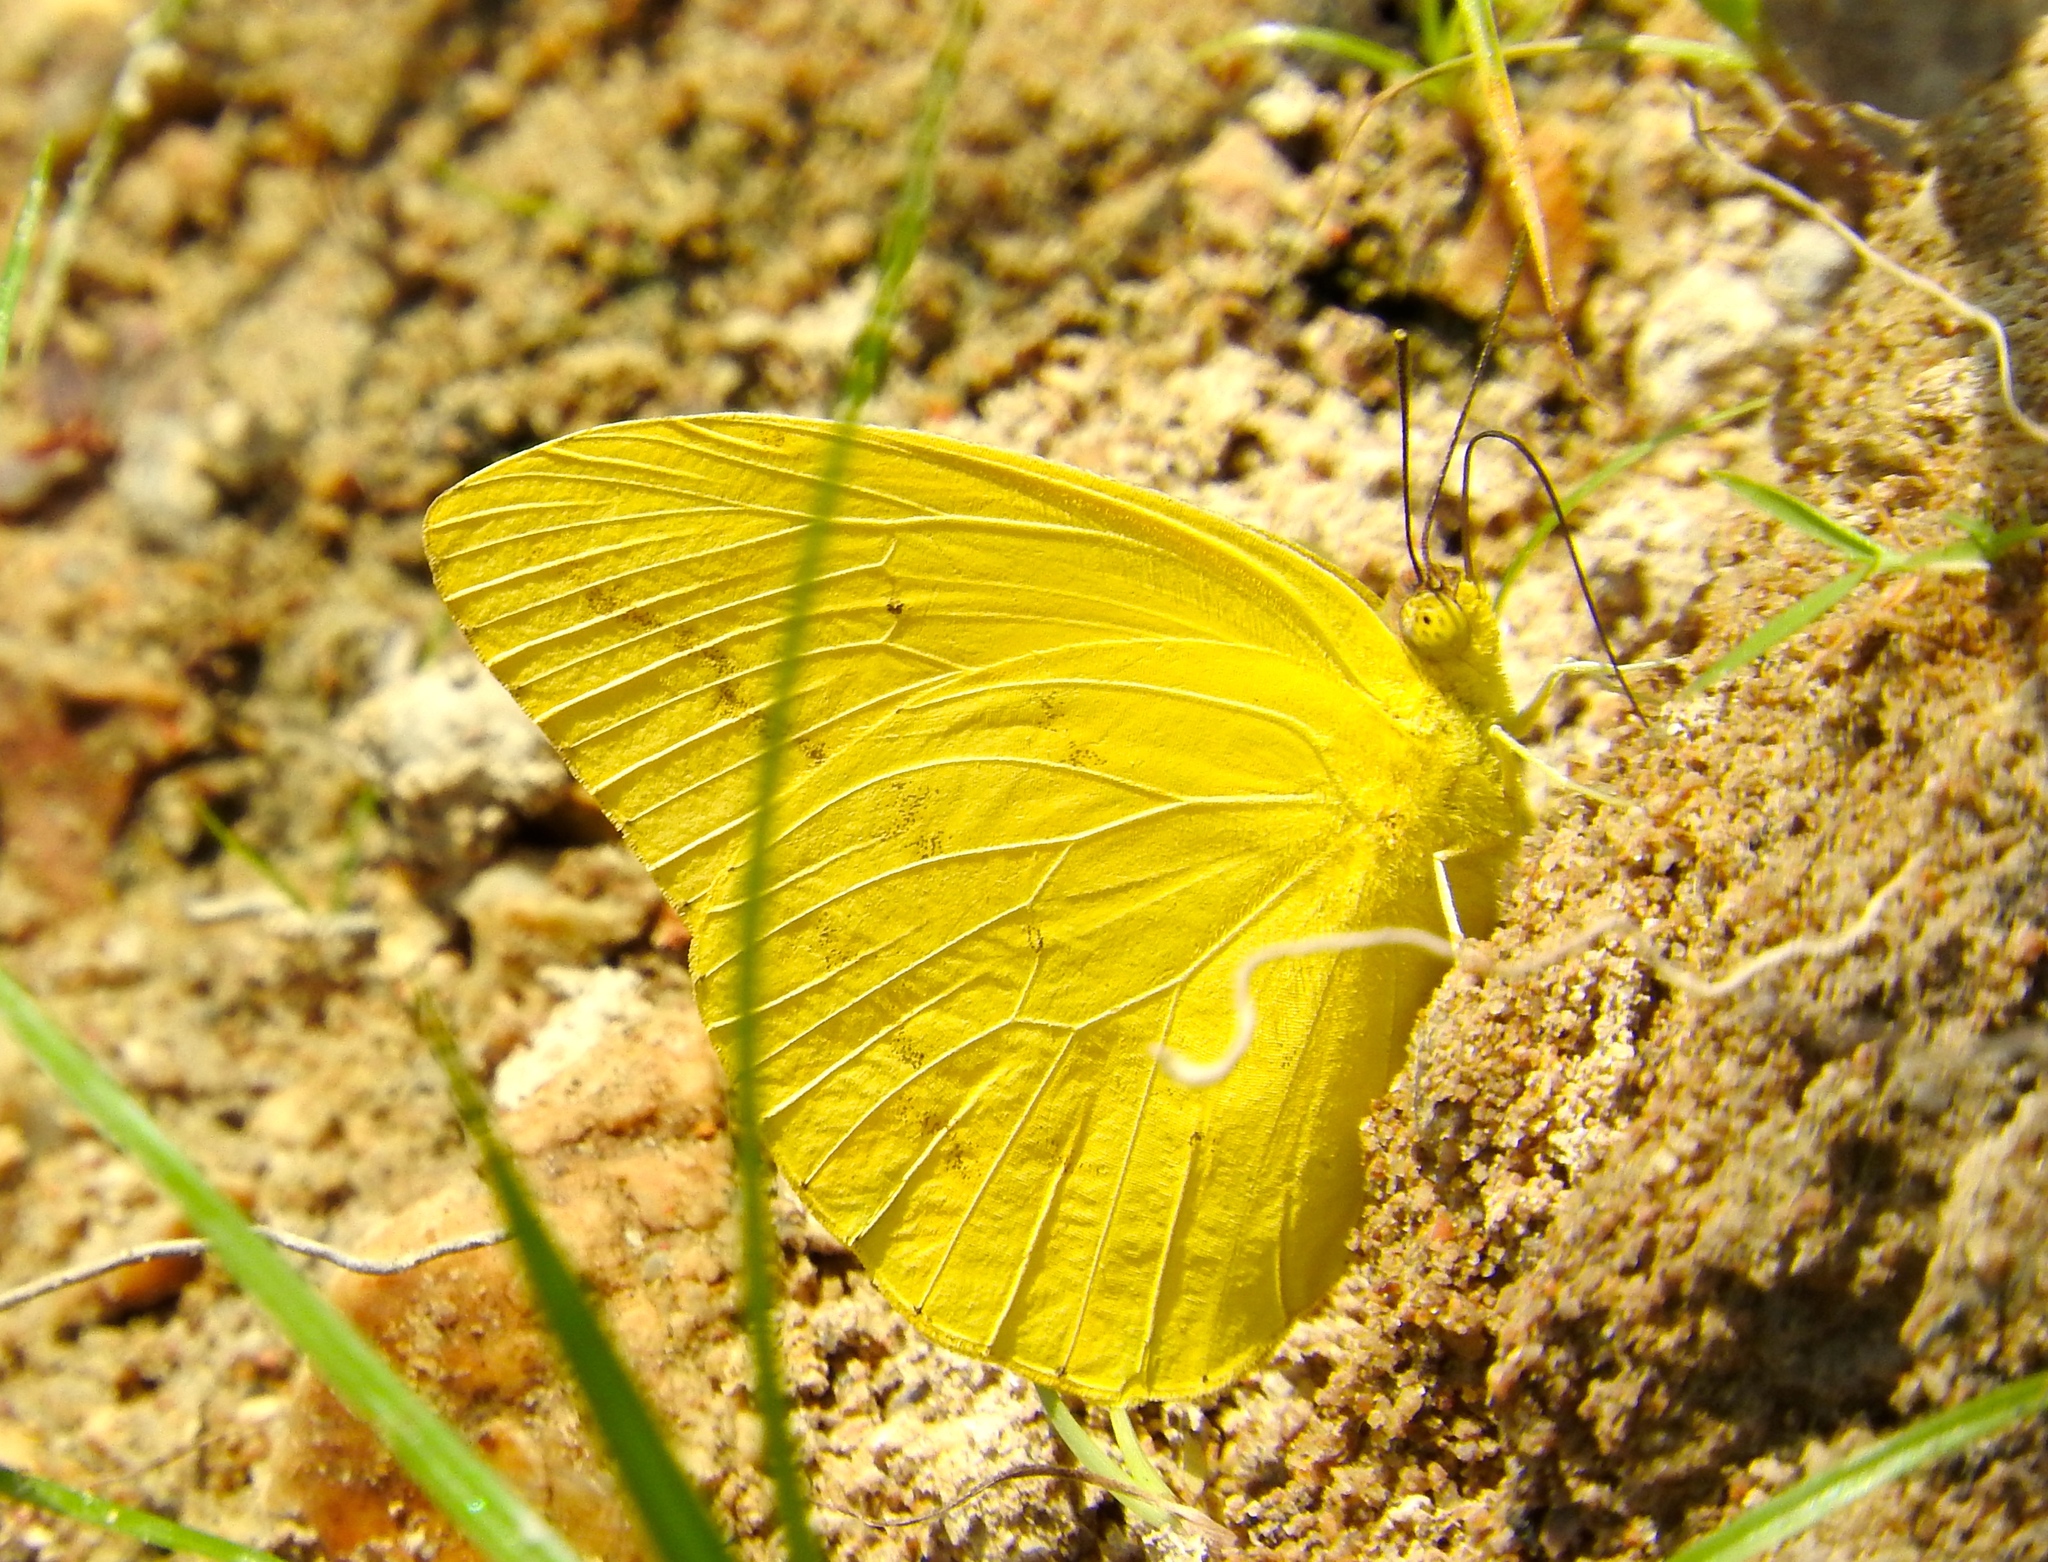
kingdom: Animalia
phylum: Arthropoda
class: Insecta
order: Lepidoptera
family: Pieridae
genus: Phoebis
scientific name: Phoebis agarithe
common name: Large orange sulphur
